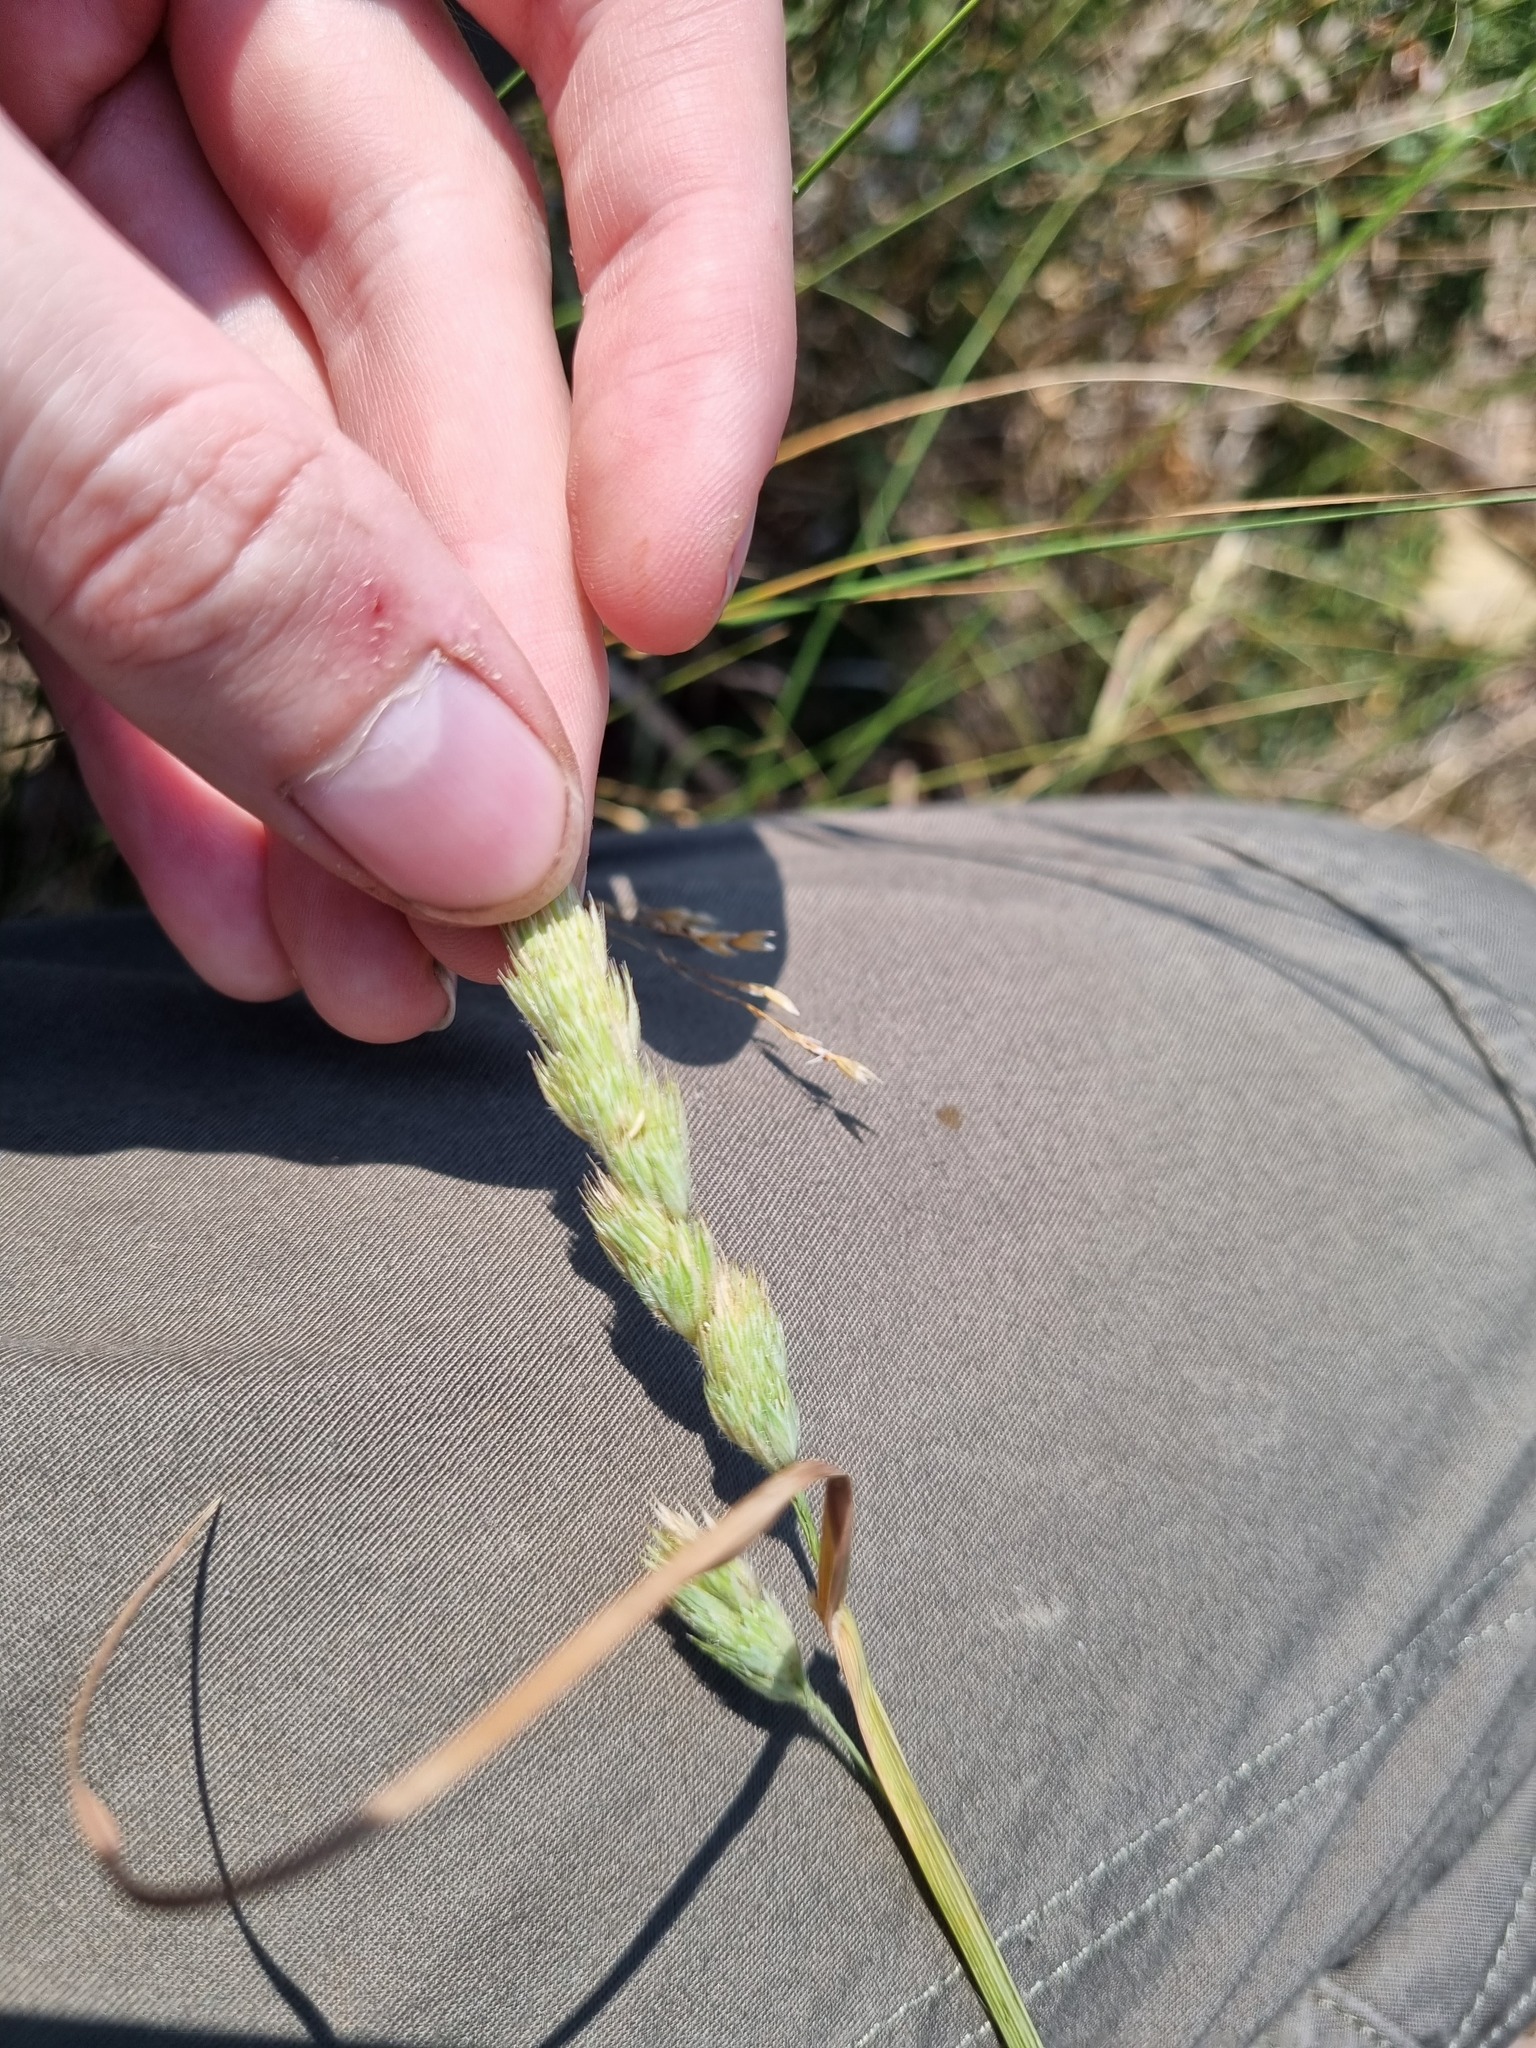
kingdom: Plantae
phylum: Tracheophyta
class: Liliopsida
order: Poales
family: Poaceae
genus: Dactylis
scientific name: Dactylis glomerata
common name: Orchardgrass
